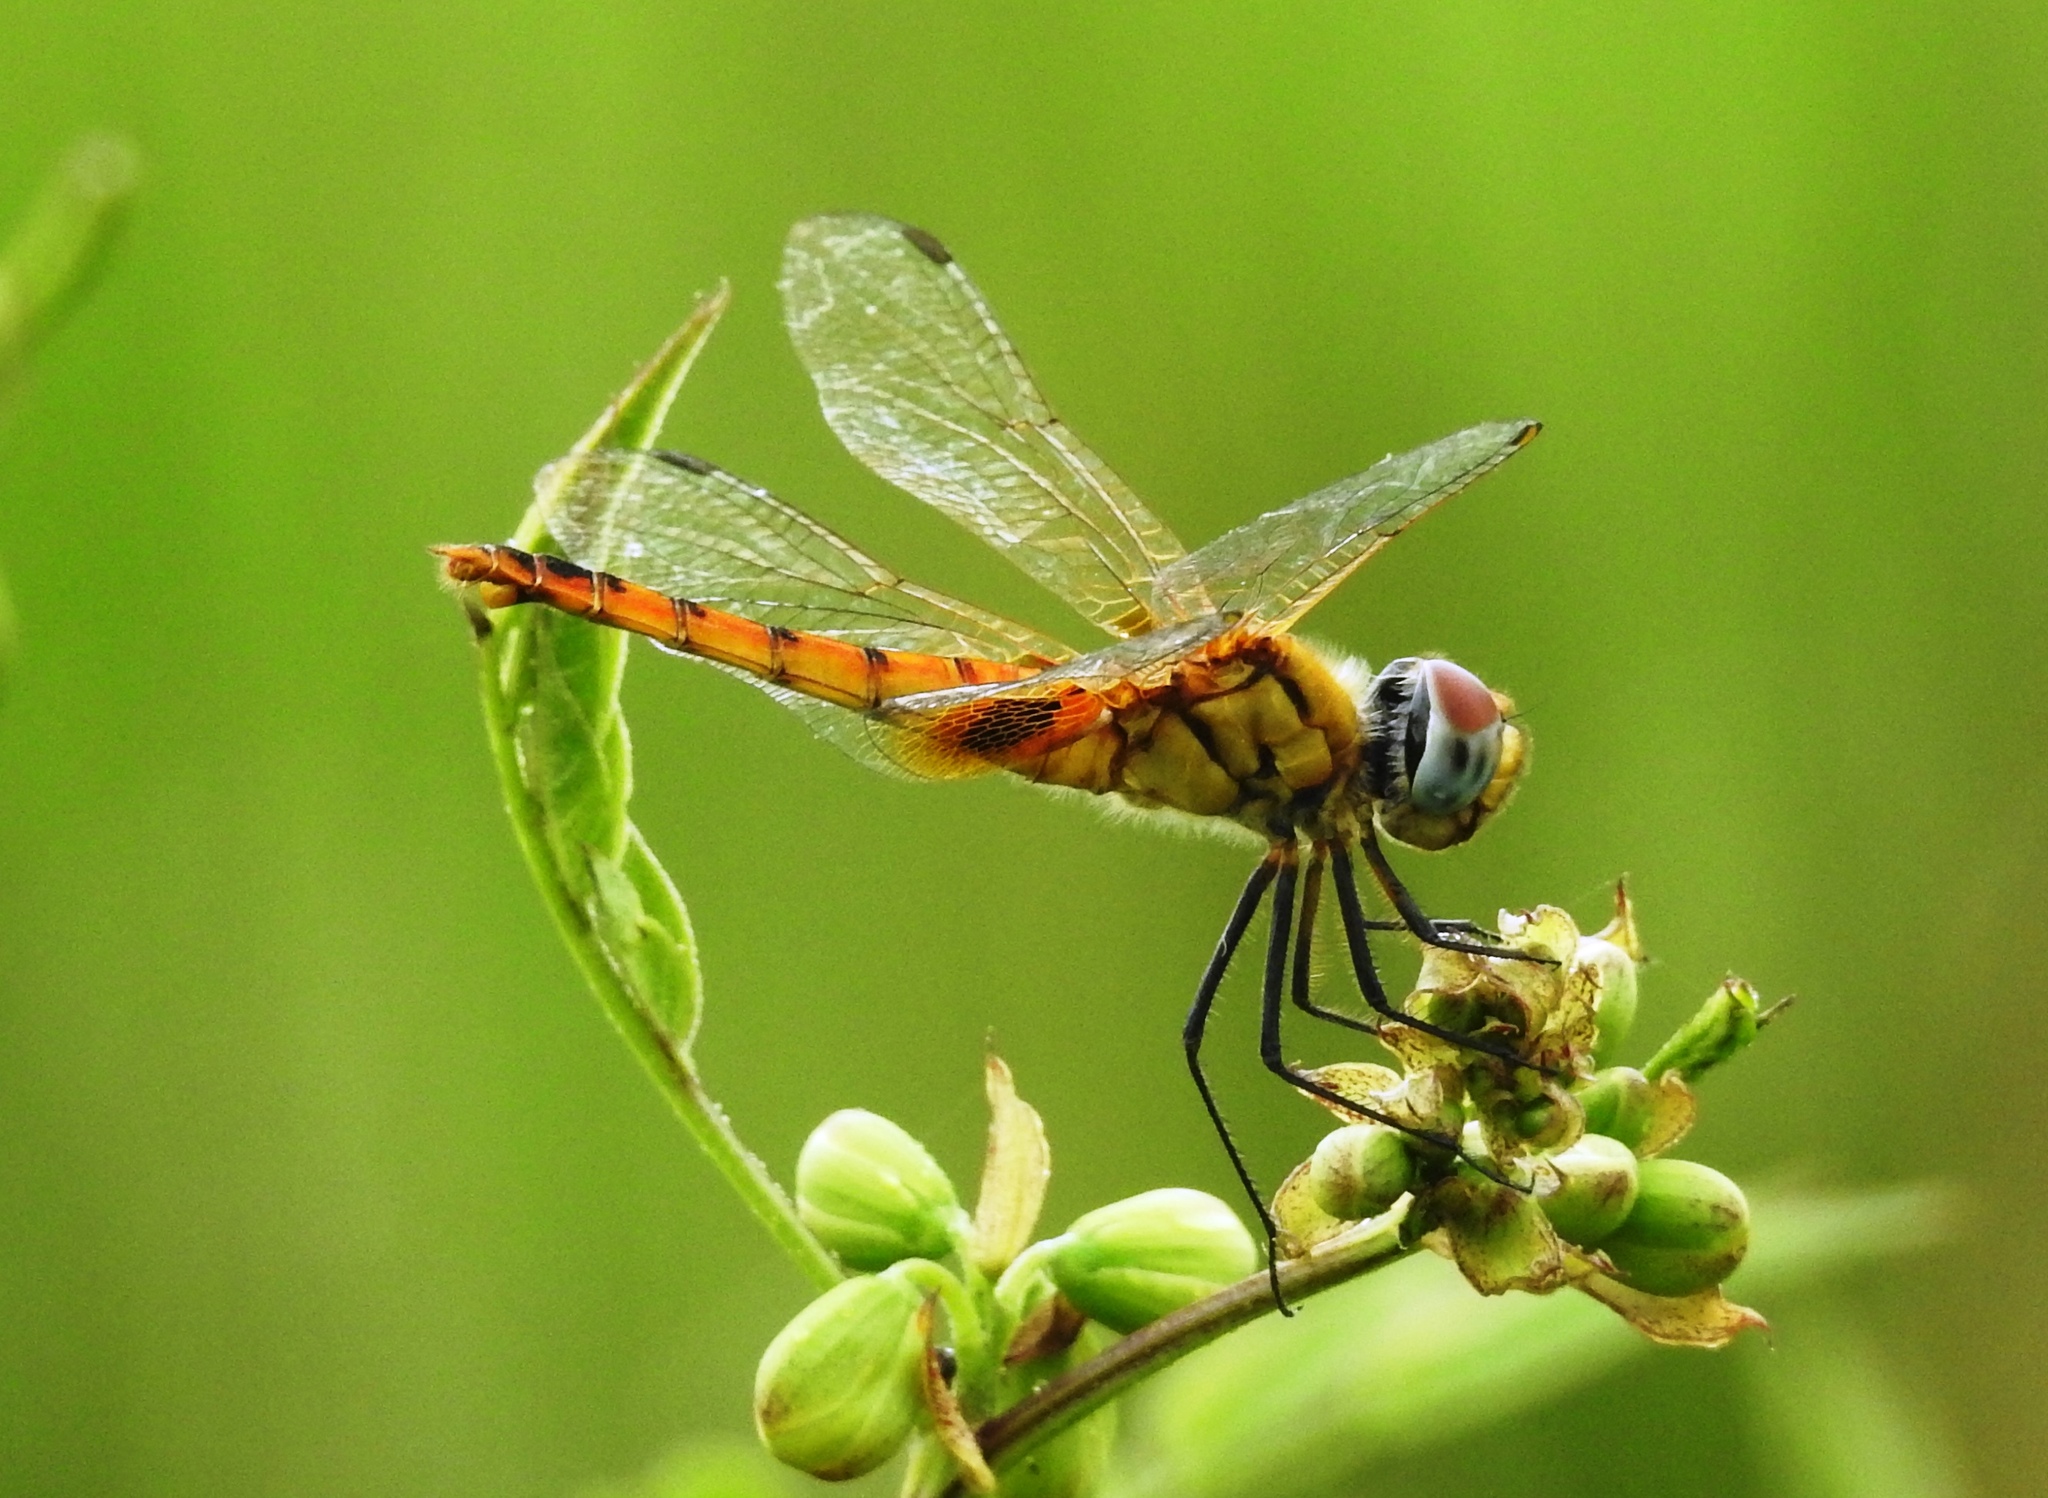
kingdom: Animalia
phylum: Arthropoda
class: Insecta
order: Odonata
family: Libellulidae
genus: Urothemis
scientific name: Urothemis signata
